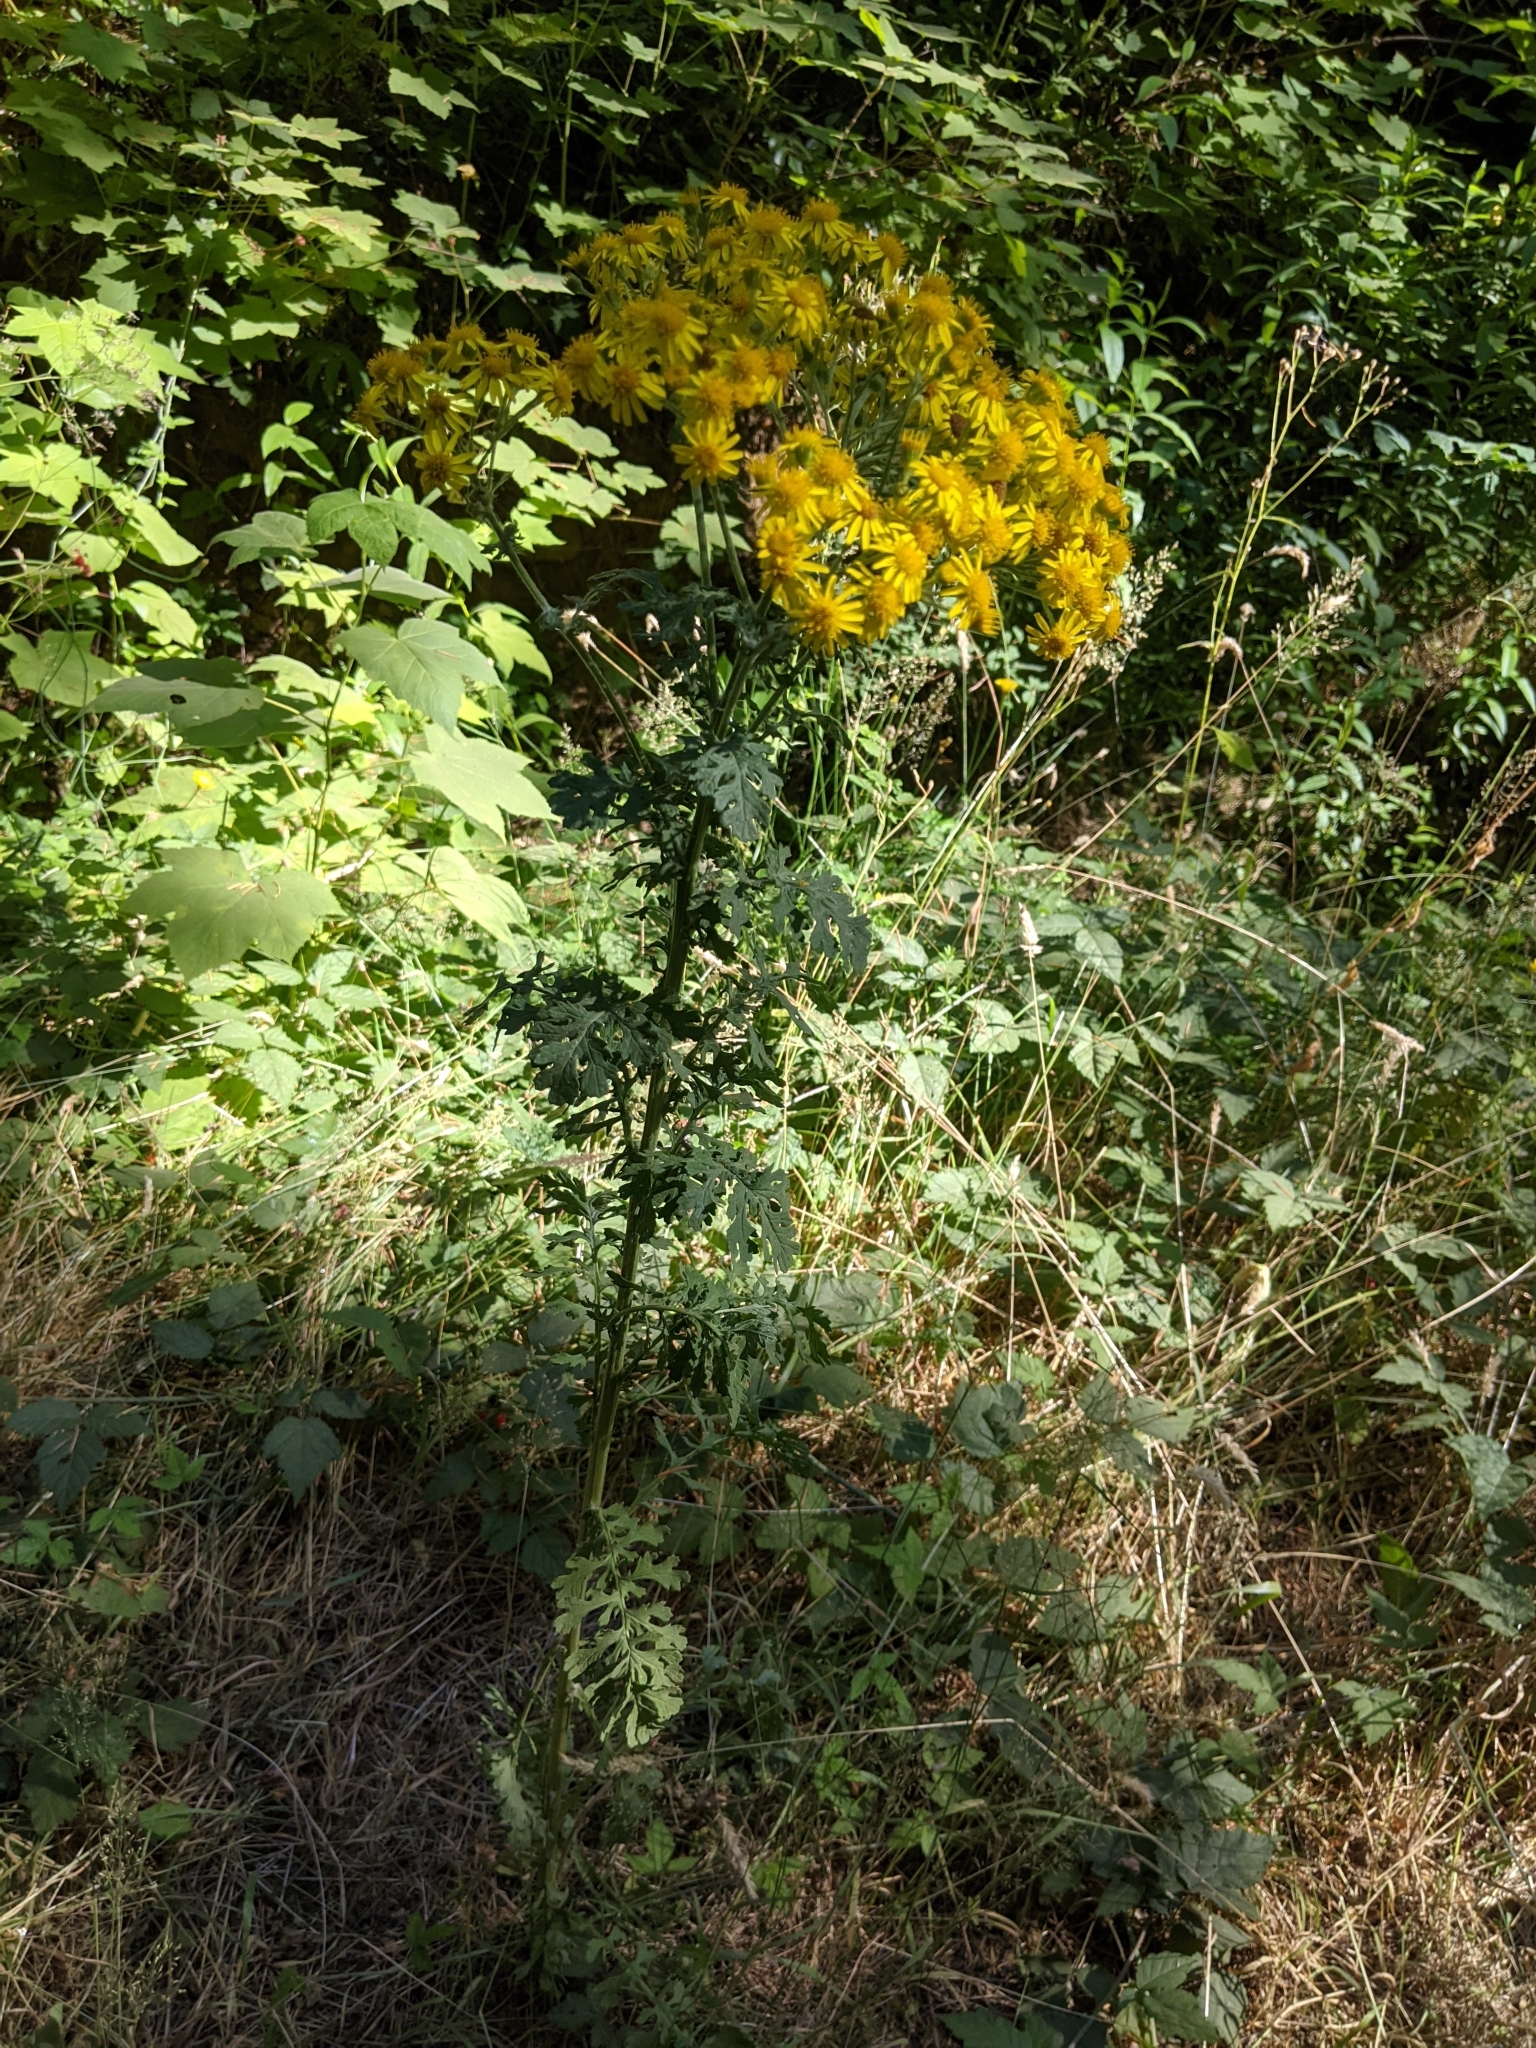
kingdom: Plantae
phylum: Tracheophyta
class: Magnoliopsida
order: Asterales
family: Asteraceae
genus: Jacobaea
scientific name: Jacobaea vulgaris
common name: Stinking willie
